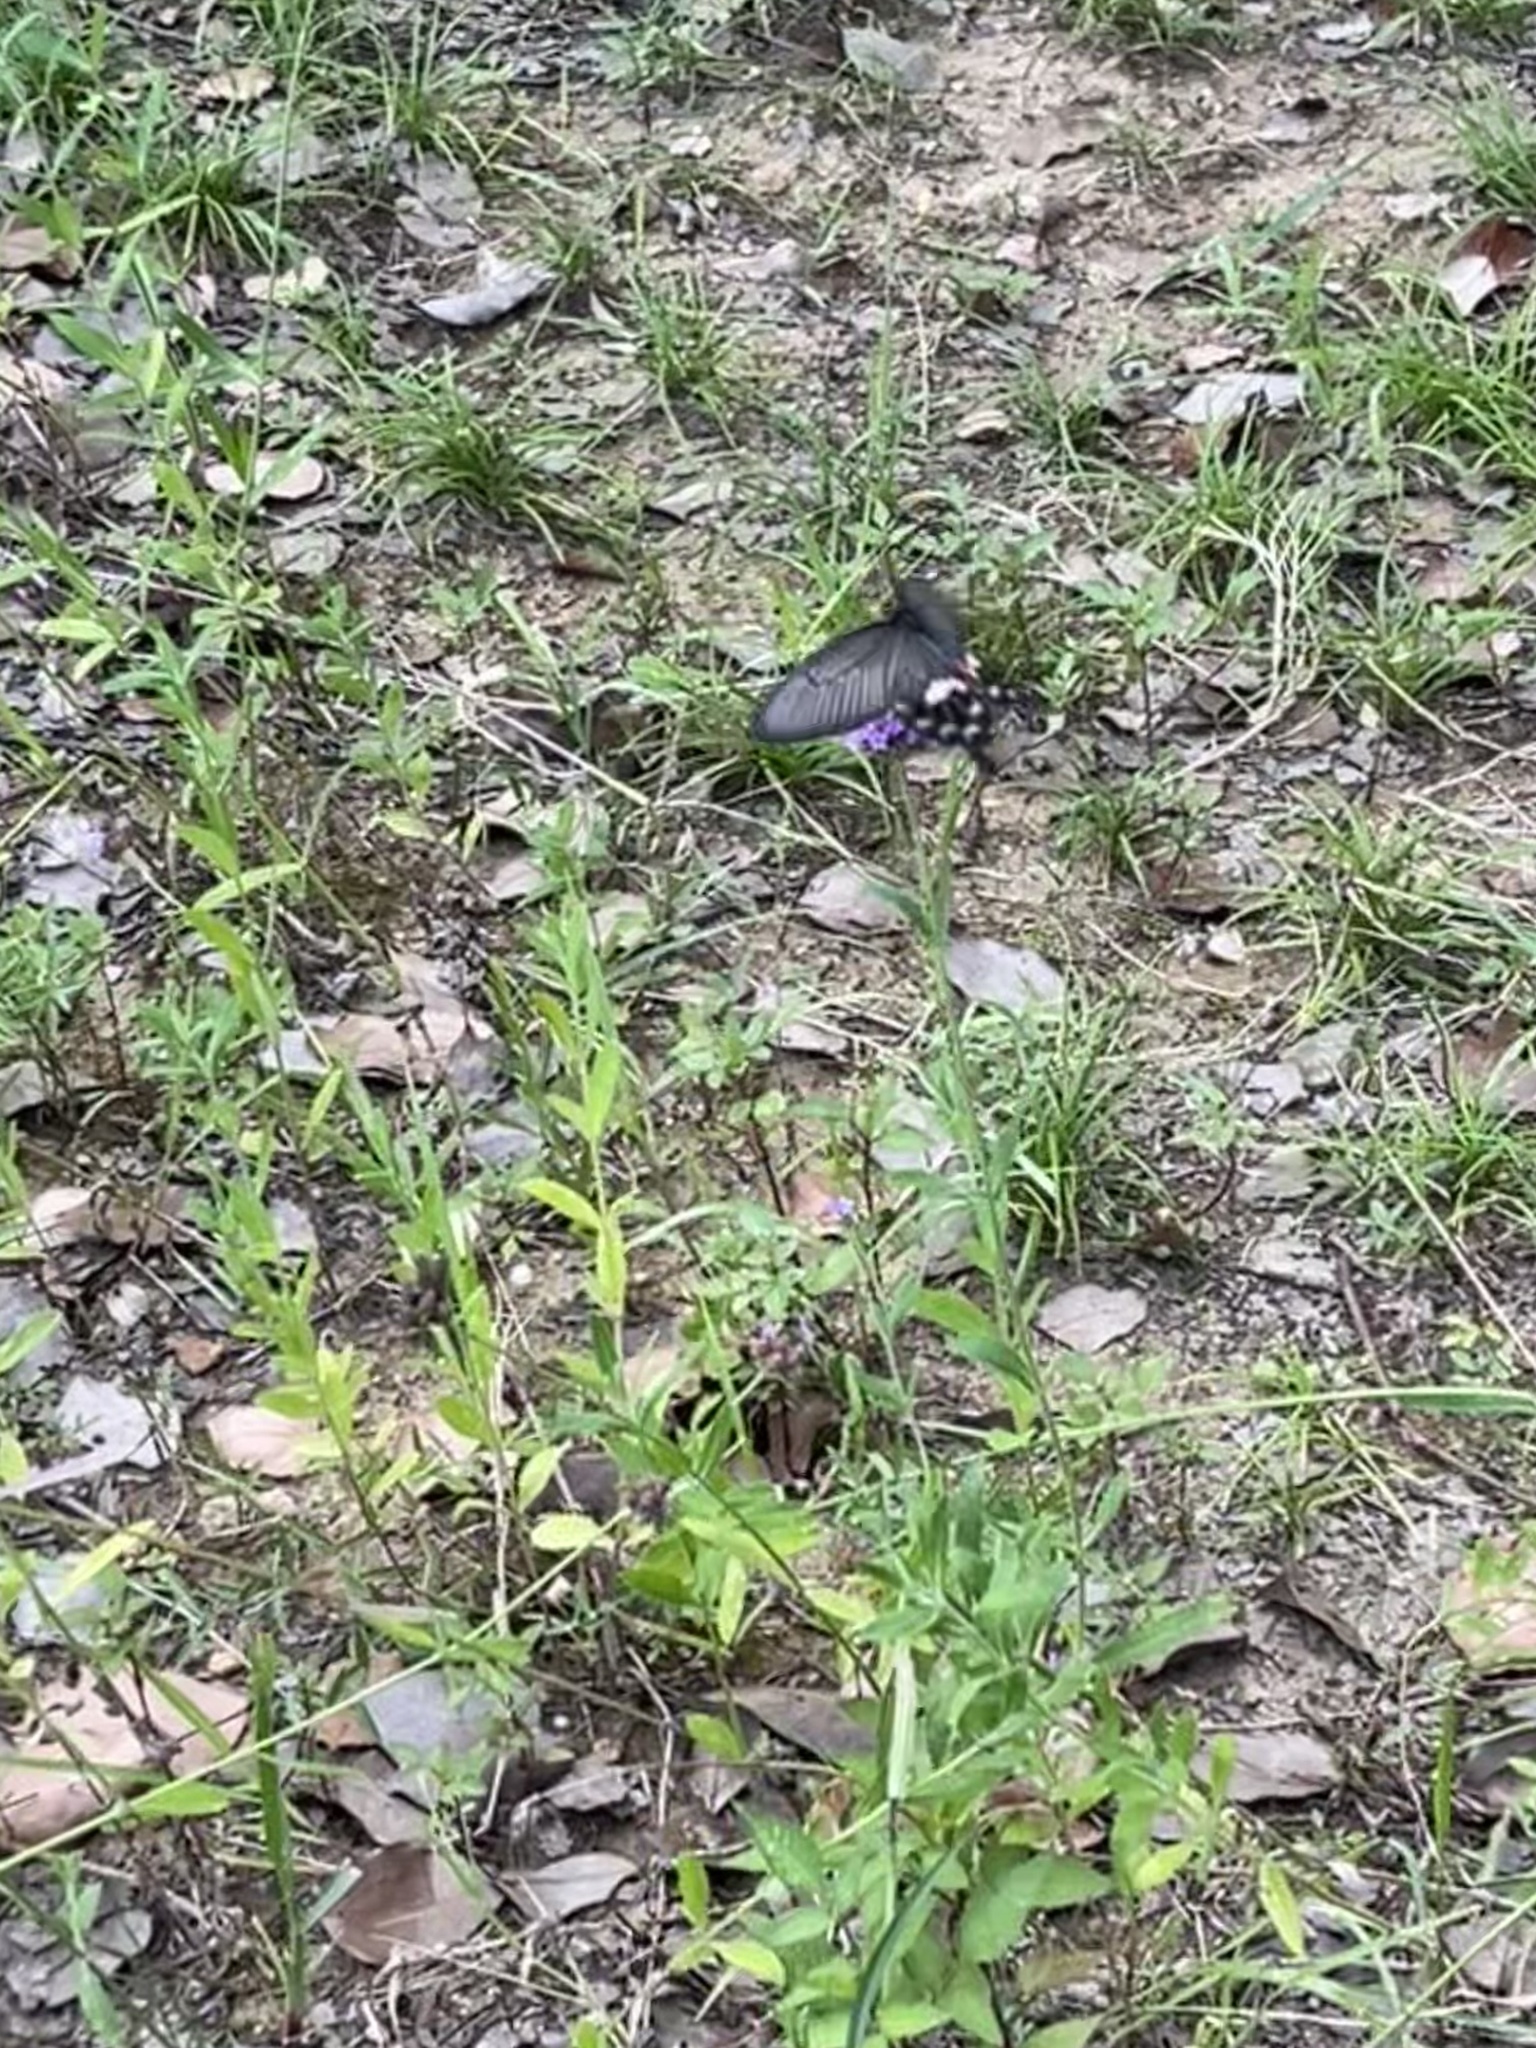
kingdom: Animalia
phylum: Arthropoda
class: Insecta
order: Lepidoptera
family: Papilionidae
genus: Pachliopta
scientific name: Pachliopta aristolochiae
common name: Common rose
